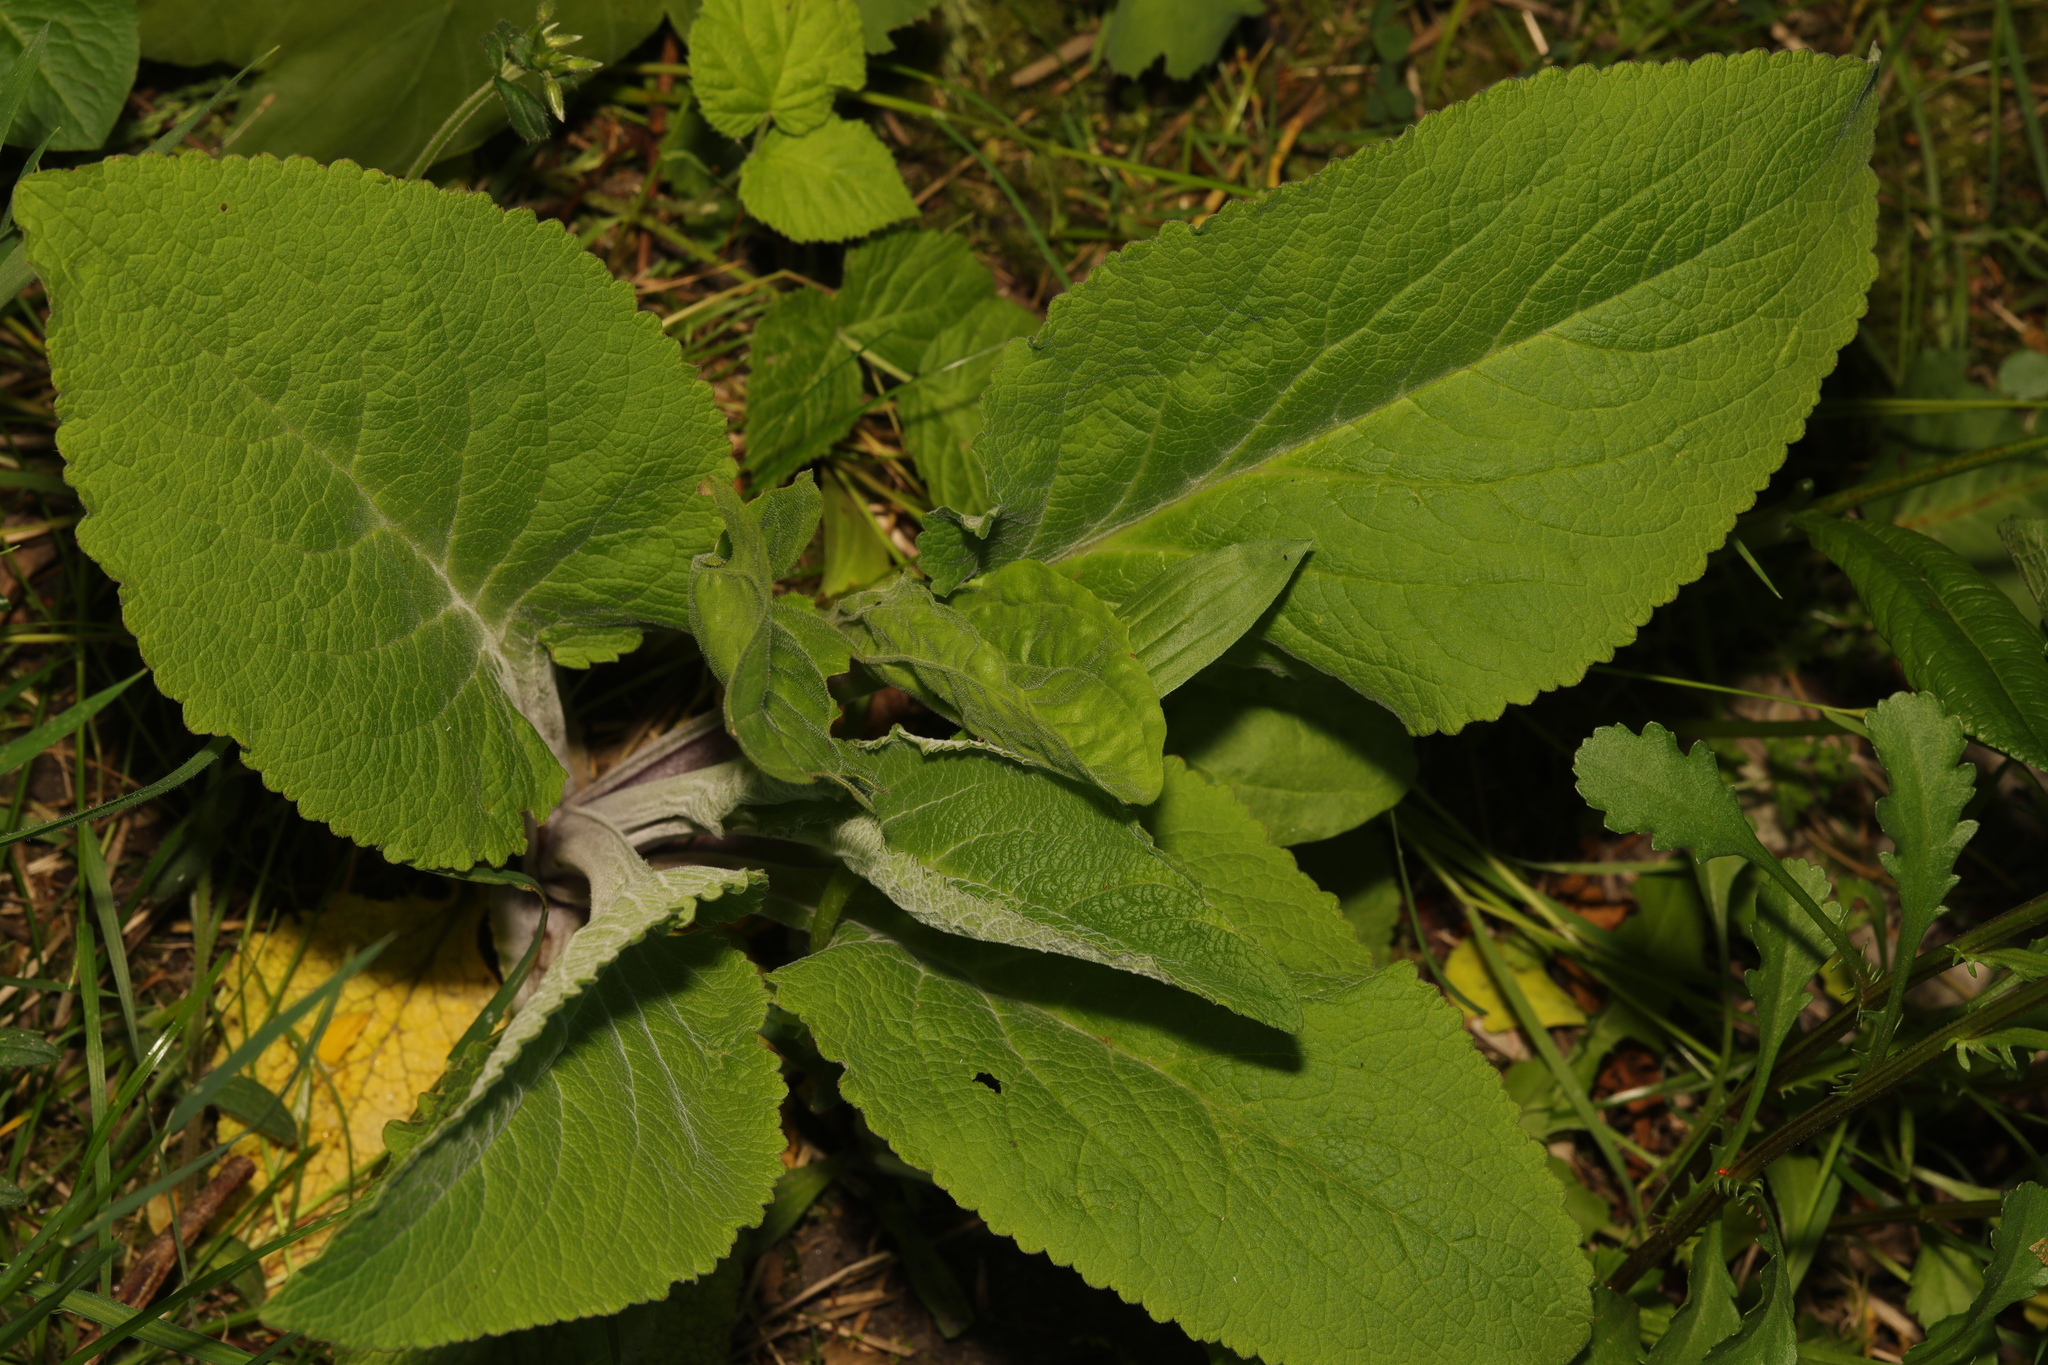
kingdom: Plantae
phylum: Tracheophyta
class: Magnoliopsida
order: Lamiales
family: Plantaginaceae
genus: Digitalis
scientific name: Digitalis purpurea
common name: Foxglove
